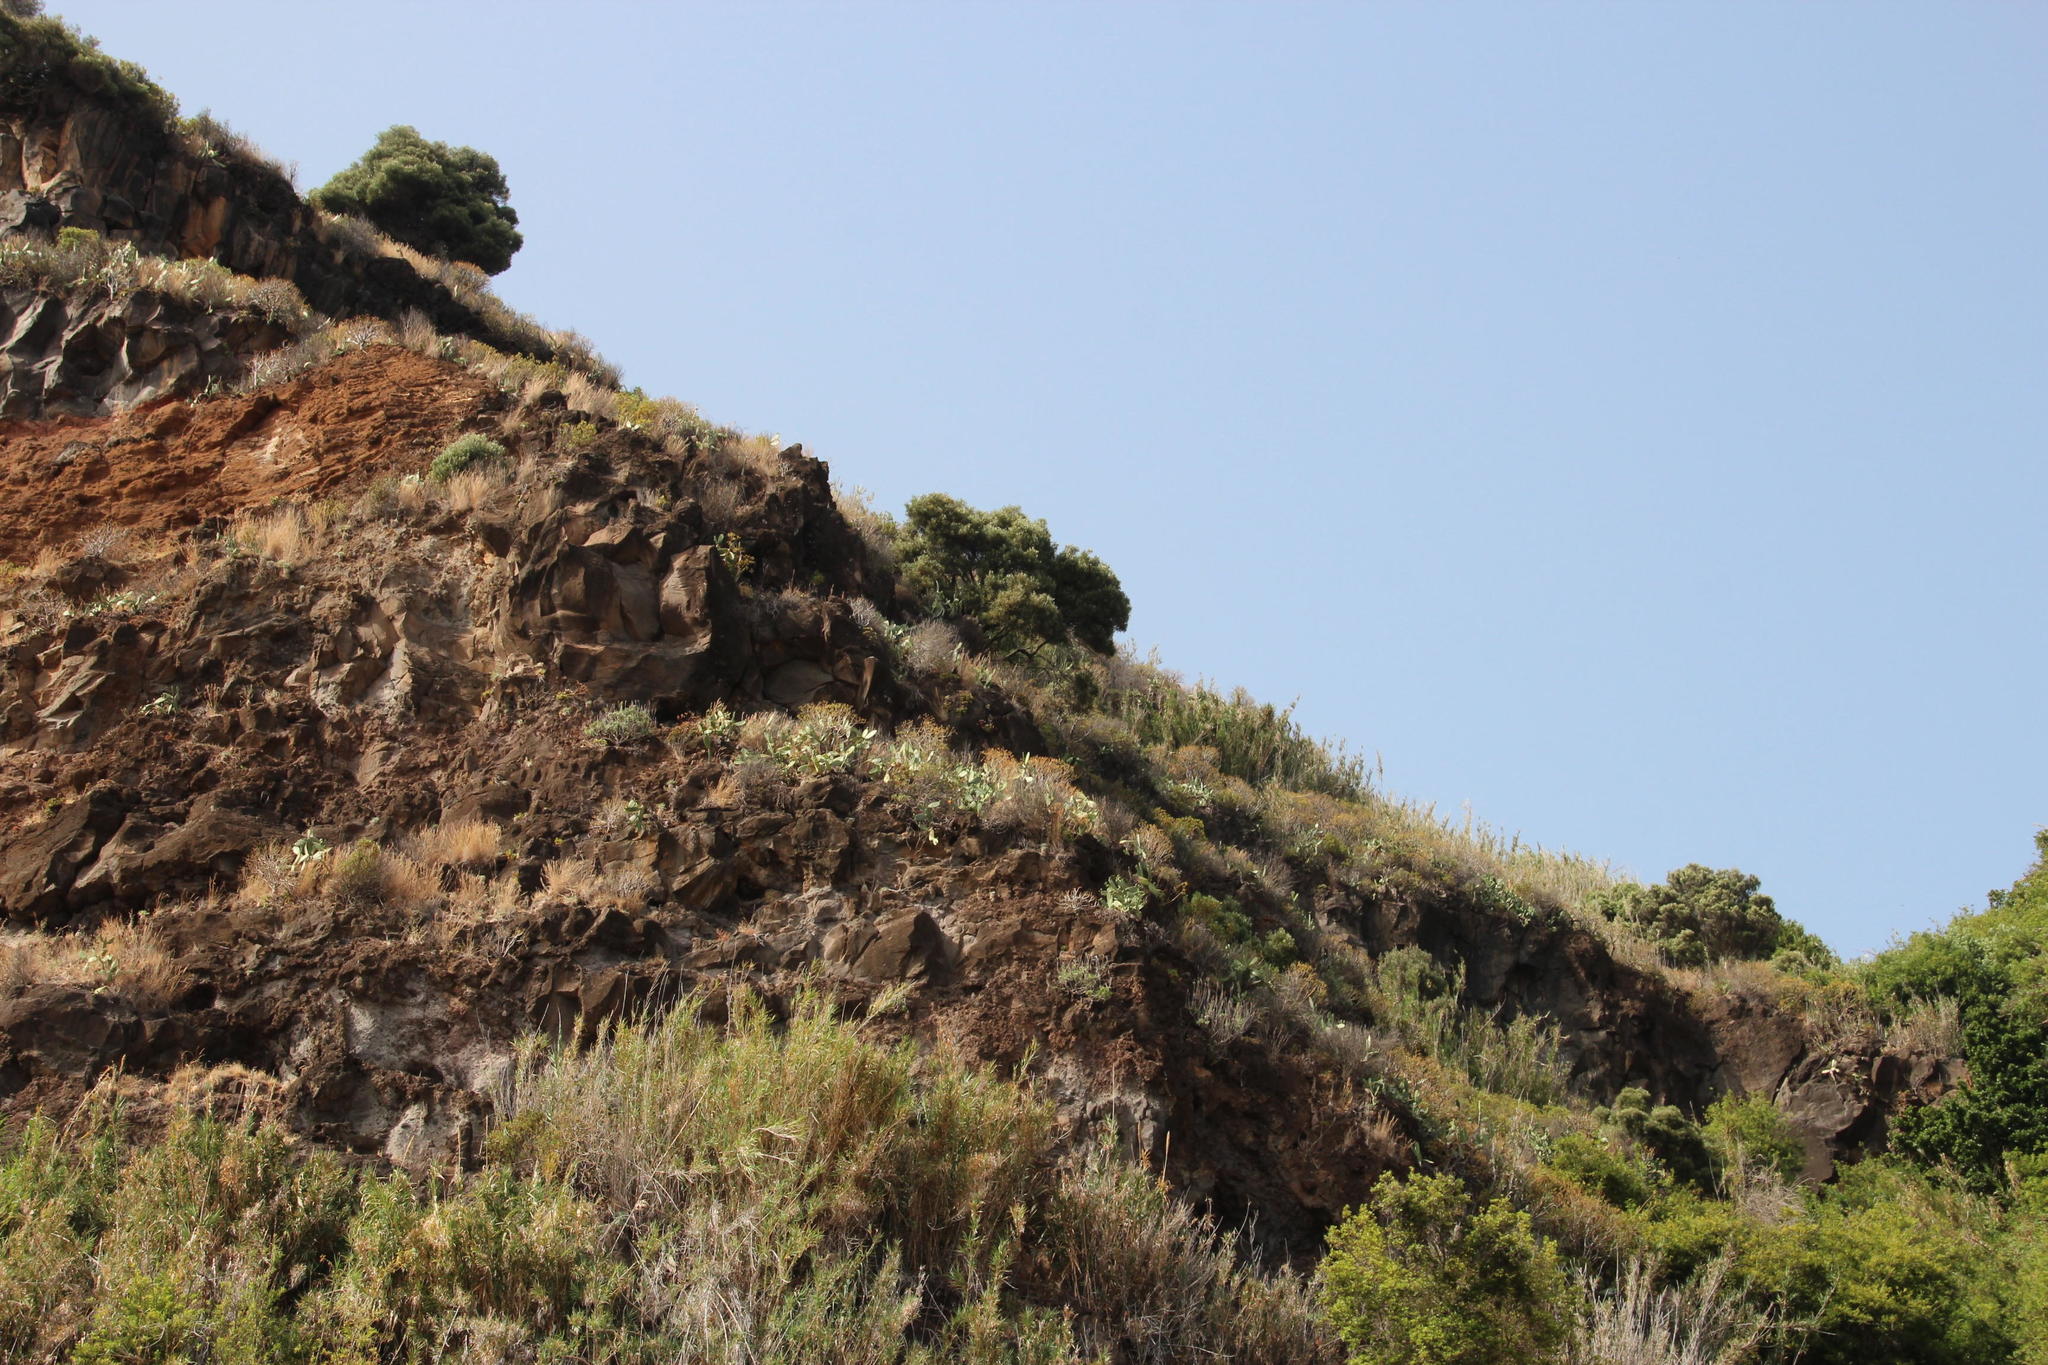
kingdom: Plantae
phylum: Tracheophyta
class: Magnoliopsida
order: Caryophyllales
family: Cactaceae
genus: Opuntia
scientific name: Opuntia ficus-indica
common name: Barbary fig
